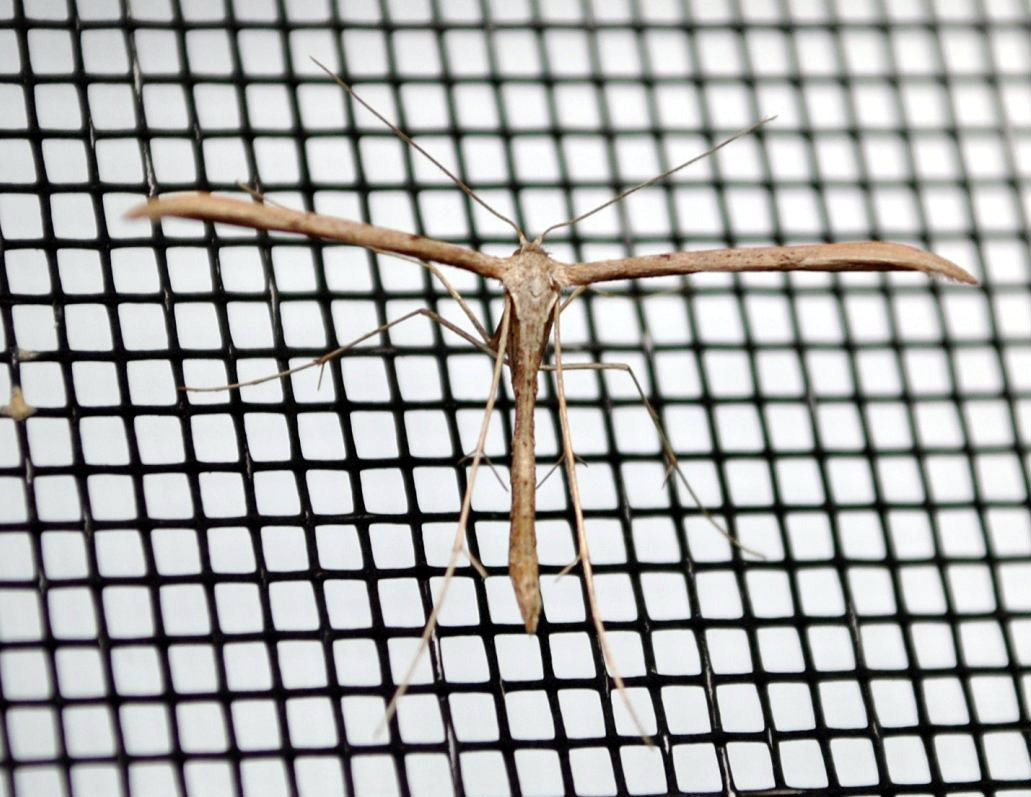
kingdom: Animalia
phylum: Arthropoda
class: Insecta
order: Lepidoptera
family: Pterophoridae
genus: Emmelina
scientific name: Emmelina monodactyla
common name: Common plume
